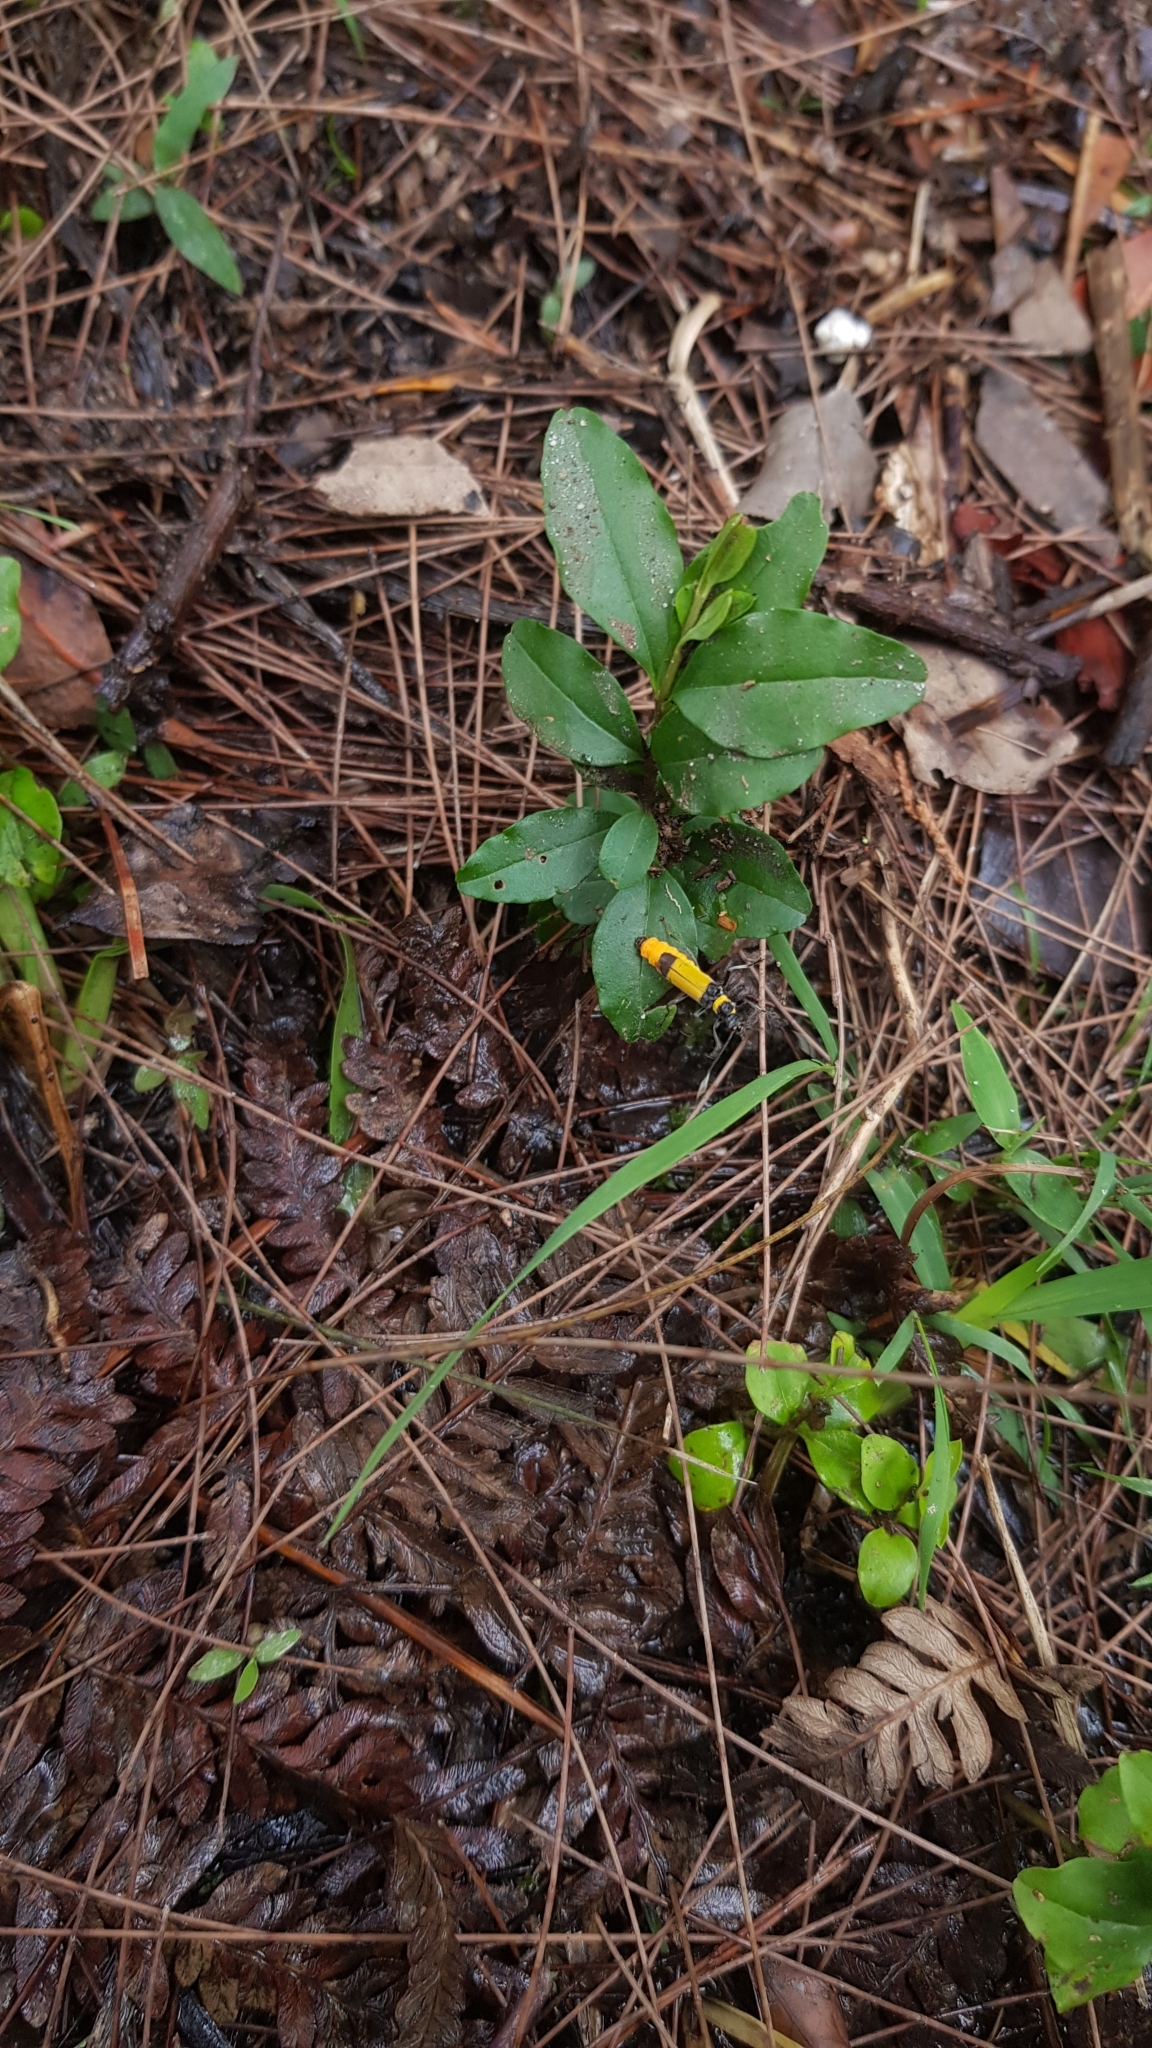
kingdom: Animalia
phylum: Arthropoda
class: Insecta
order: Coleoptera
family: Cantharidae
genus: Chauliognathus
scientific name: Chauliognathus
